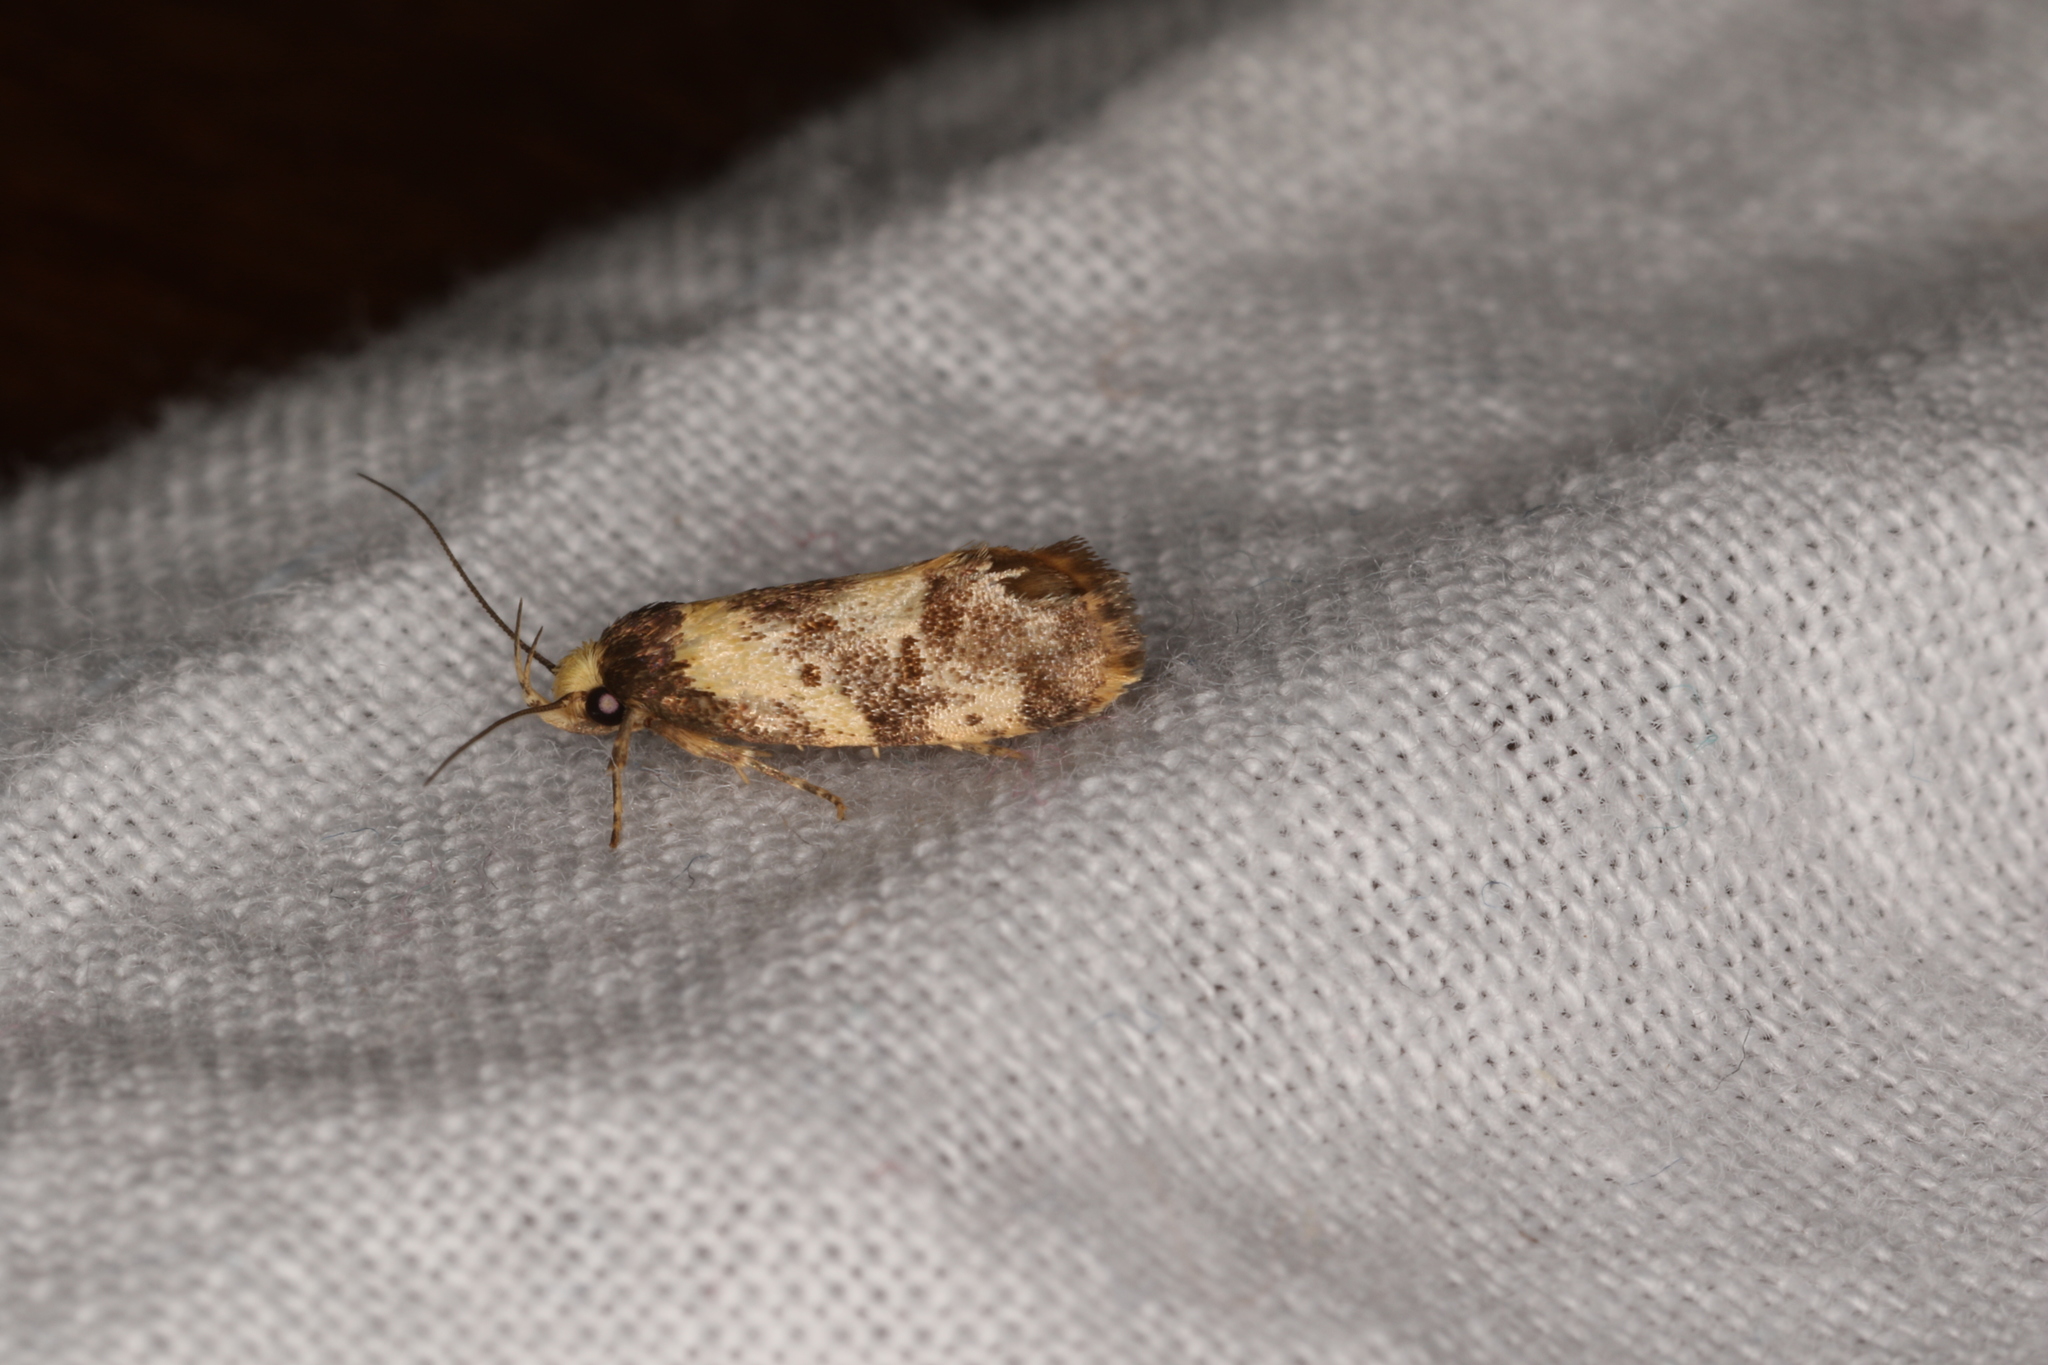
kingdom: Animalia
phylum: Arthropoda
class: Insecta
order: Lepidoptera
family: Oecophoridae
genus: Eulechria
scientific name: Eulechria marmorata
